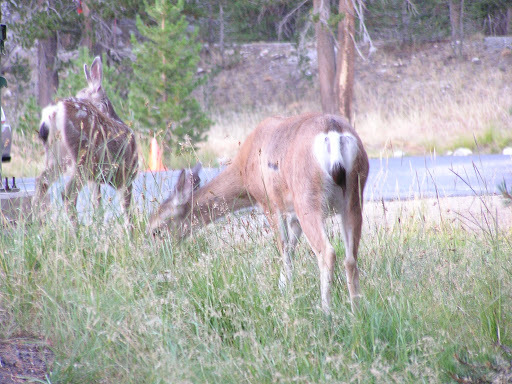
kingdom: Animalia
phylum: Chordata
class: Mammalia
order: Artiodactyla
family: Cervidae
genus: Odocoileus
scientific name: Odocoileus hemionus
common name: Mule deer
